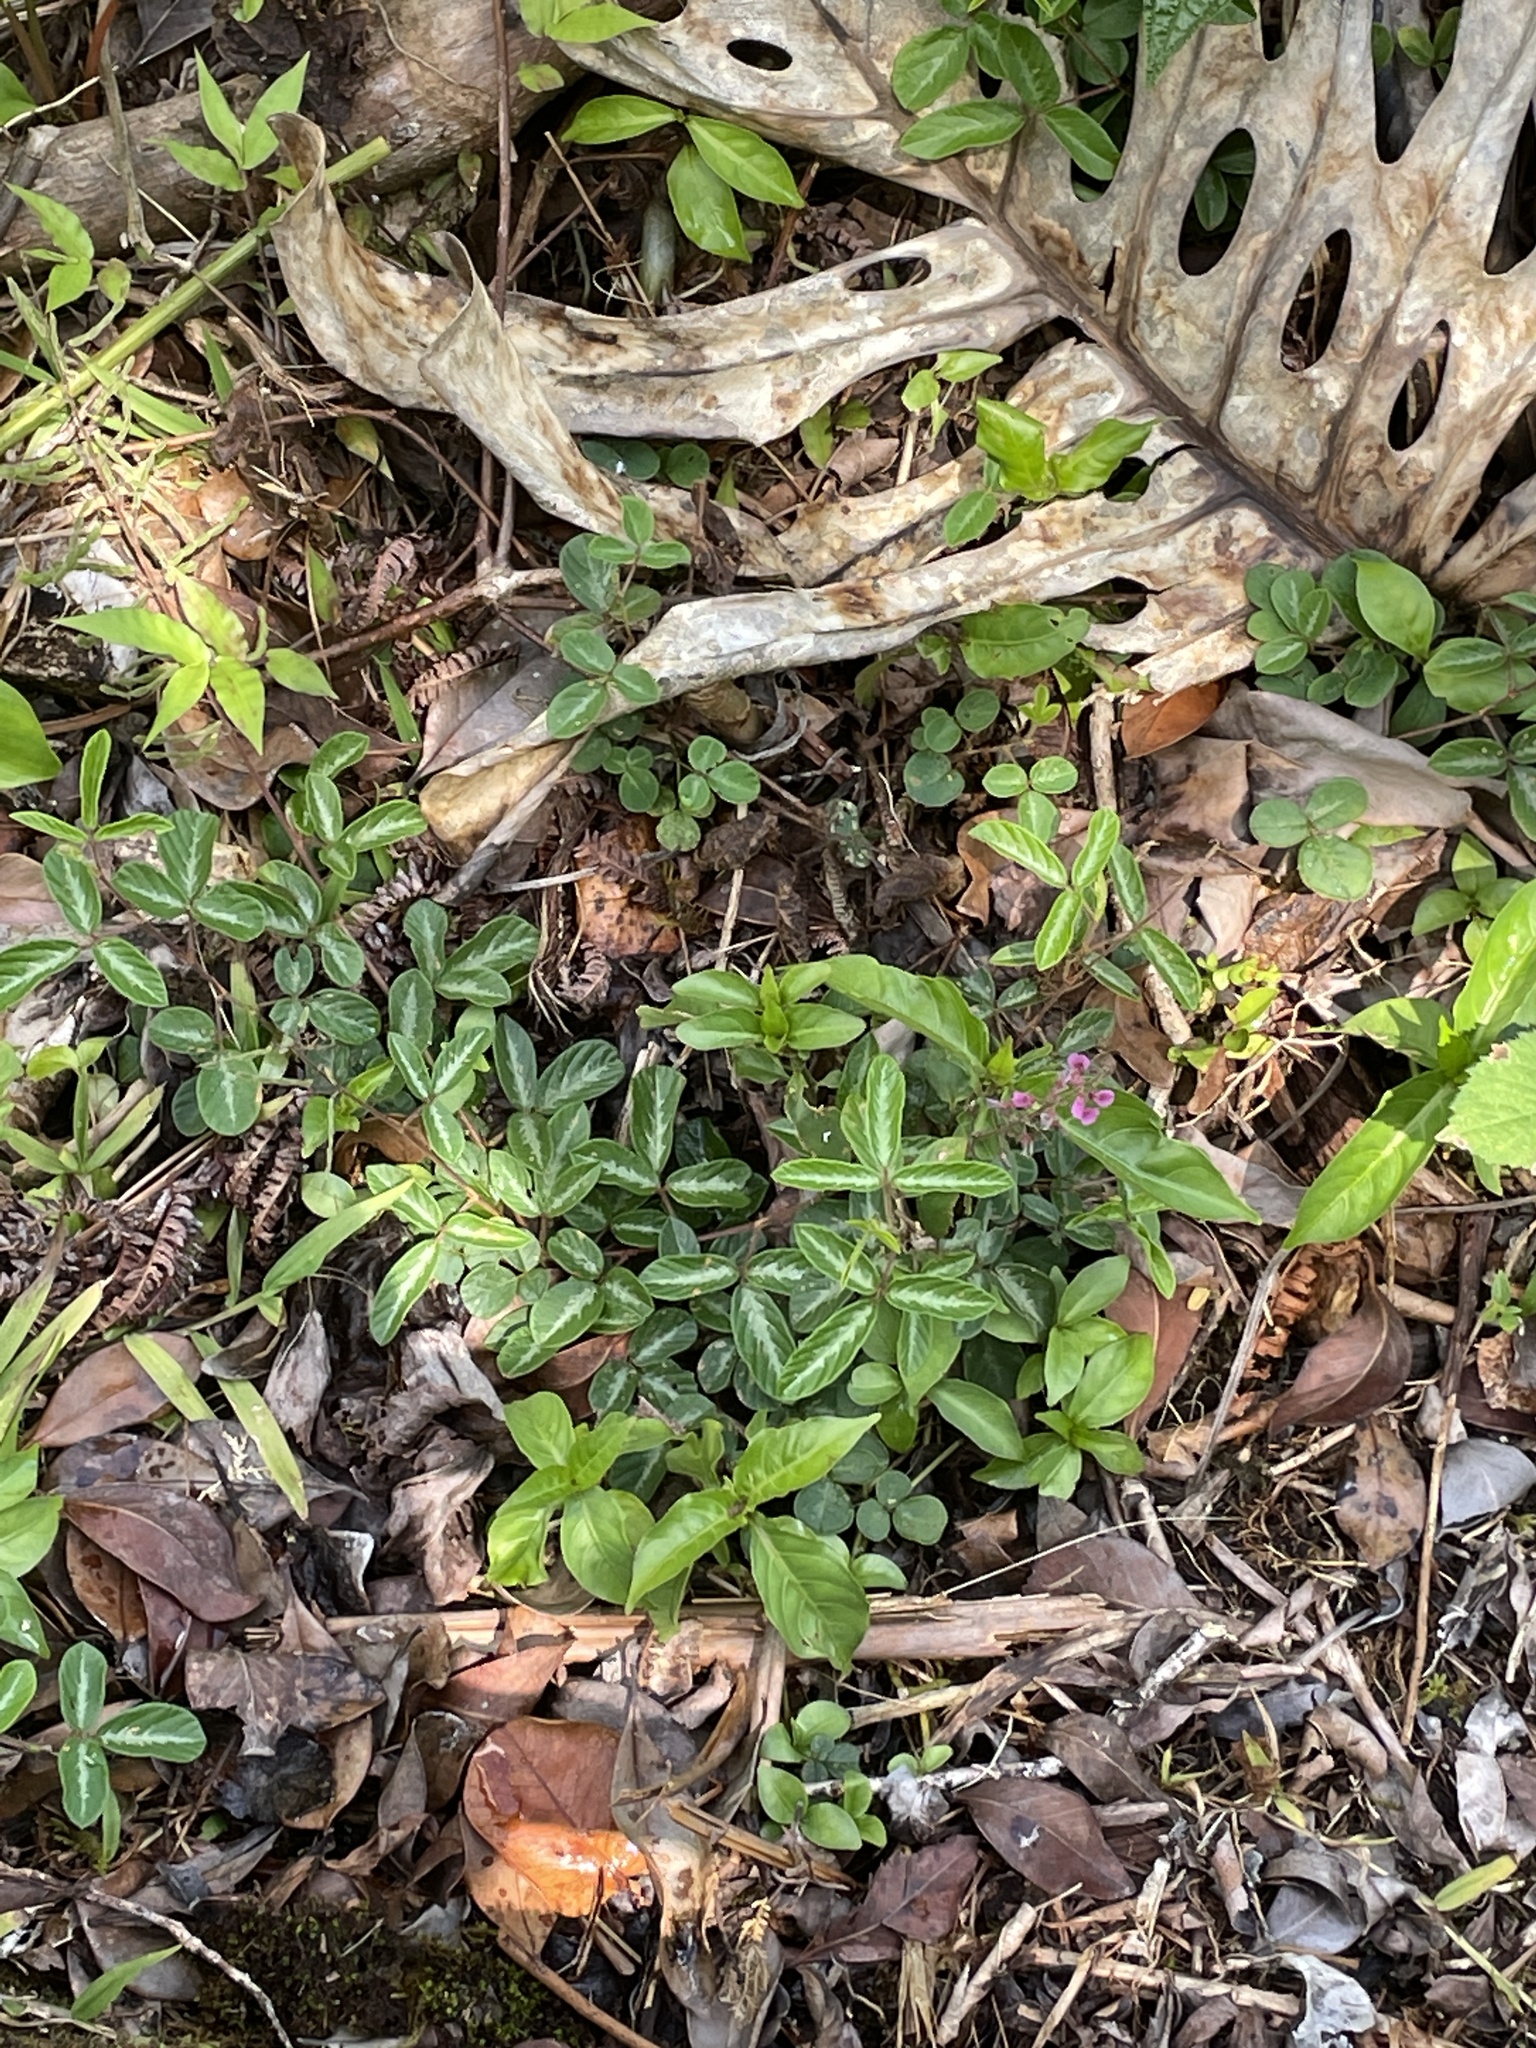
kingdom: Plantae
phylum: Tracheophyta
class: Magnoliopsida
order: Fabales
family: Fabaceae
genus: Desmodium
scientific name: Desmodium incanum
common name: Tickclover
